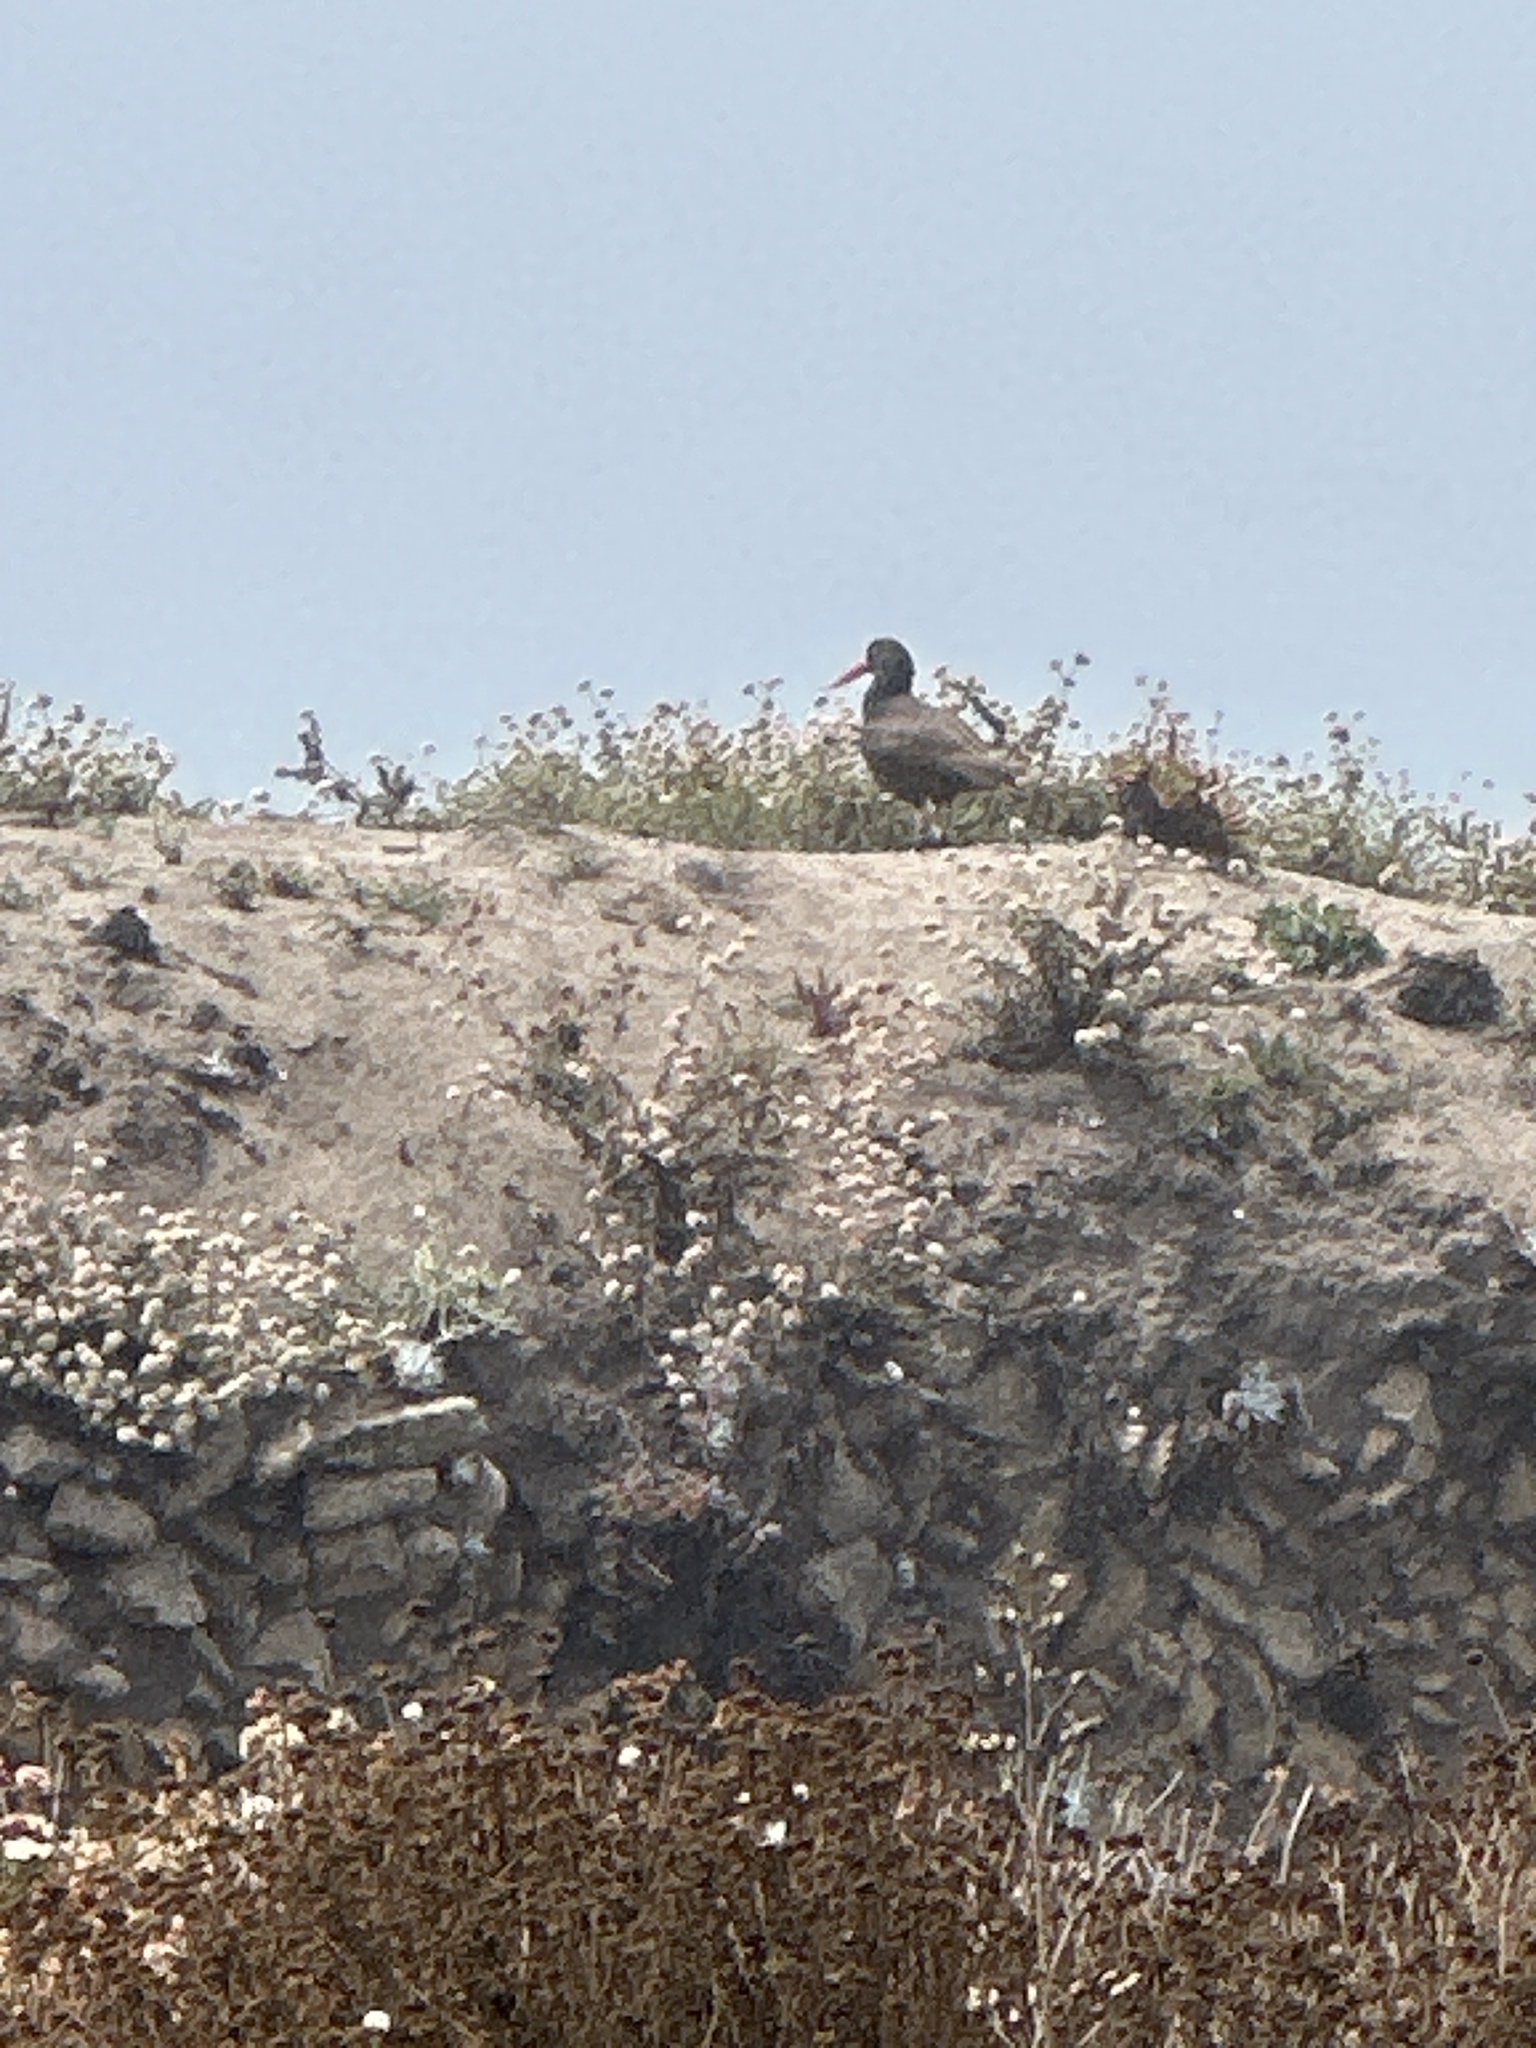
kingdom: Animalia
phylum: Chordata
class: Aves
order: Charadriiformes
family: Haematopodidae
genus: Haematopus
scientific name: Haematopus bachmani
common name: Black oystercatcher
